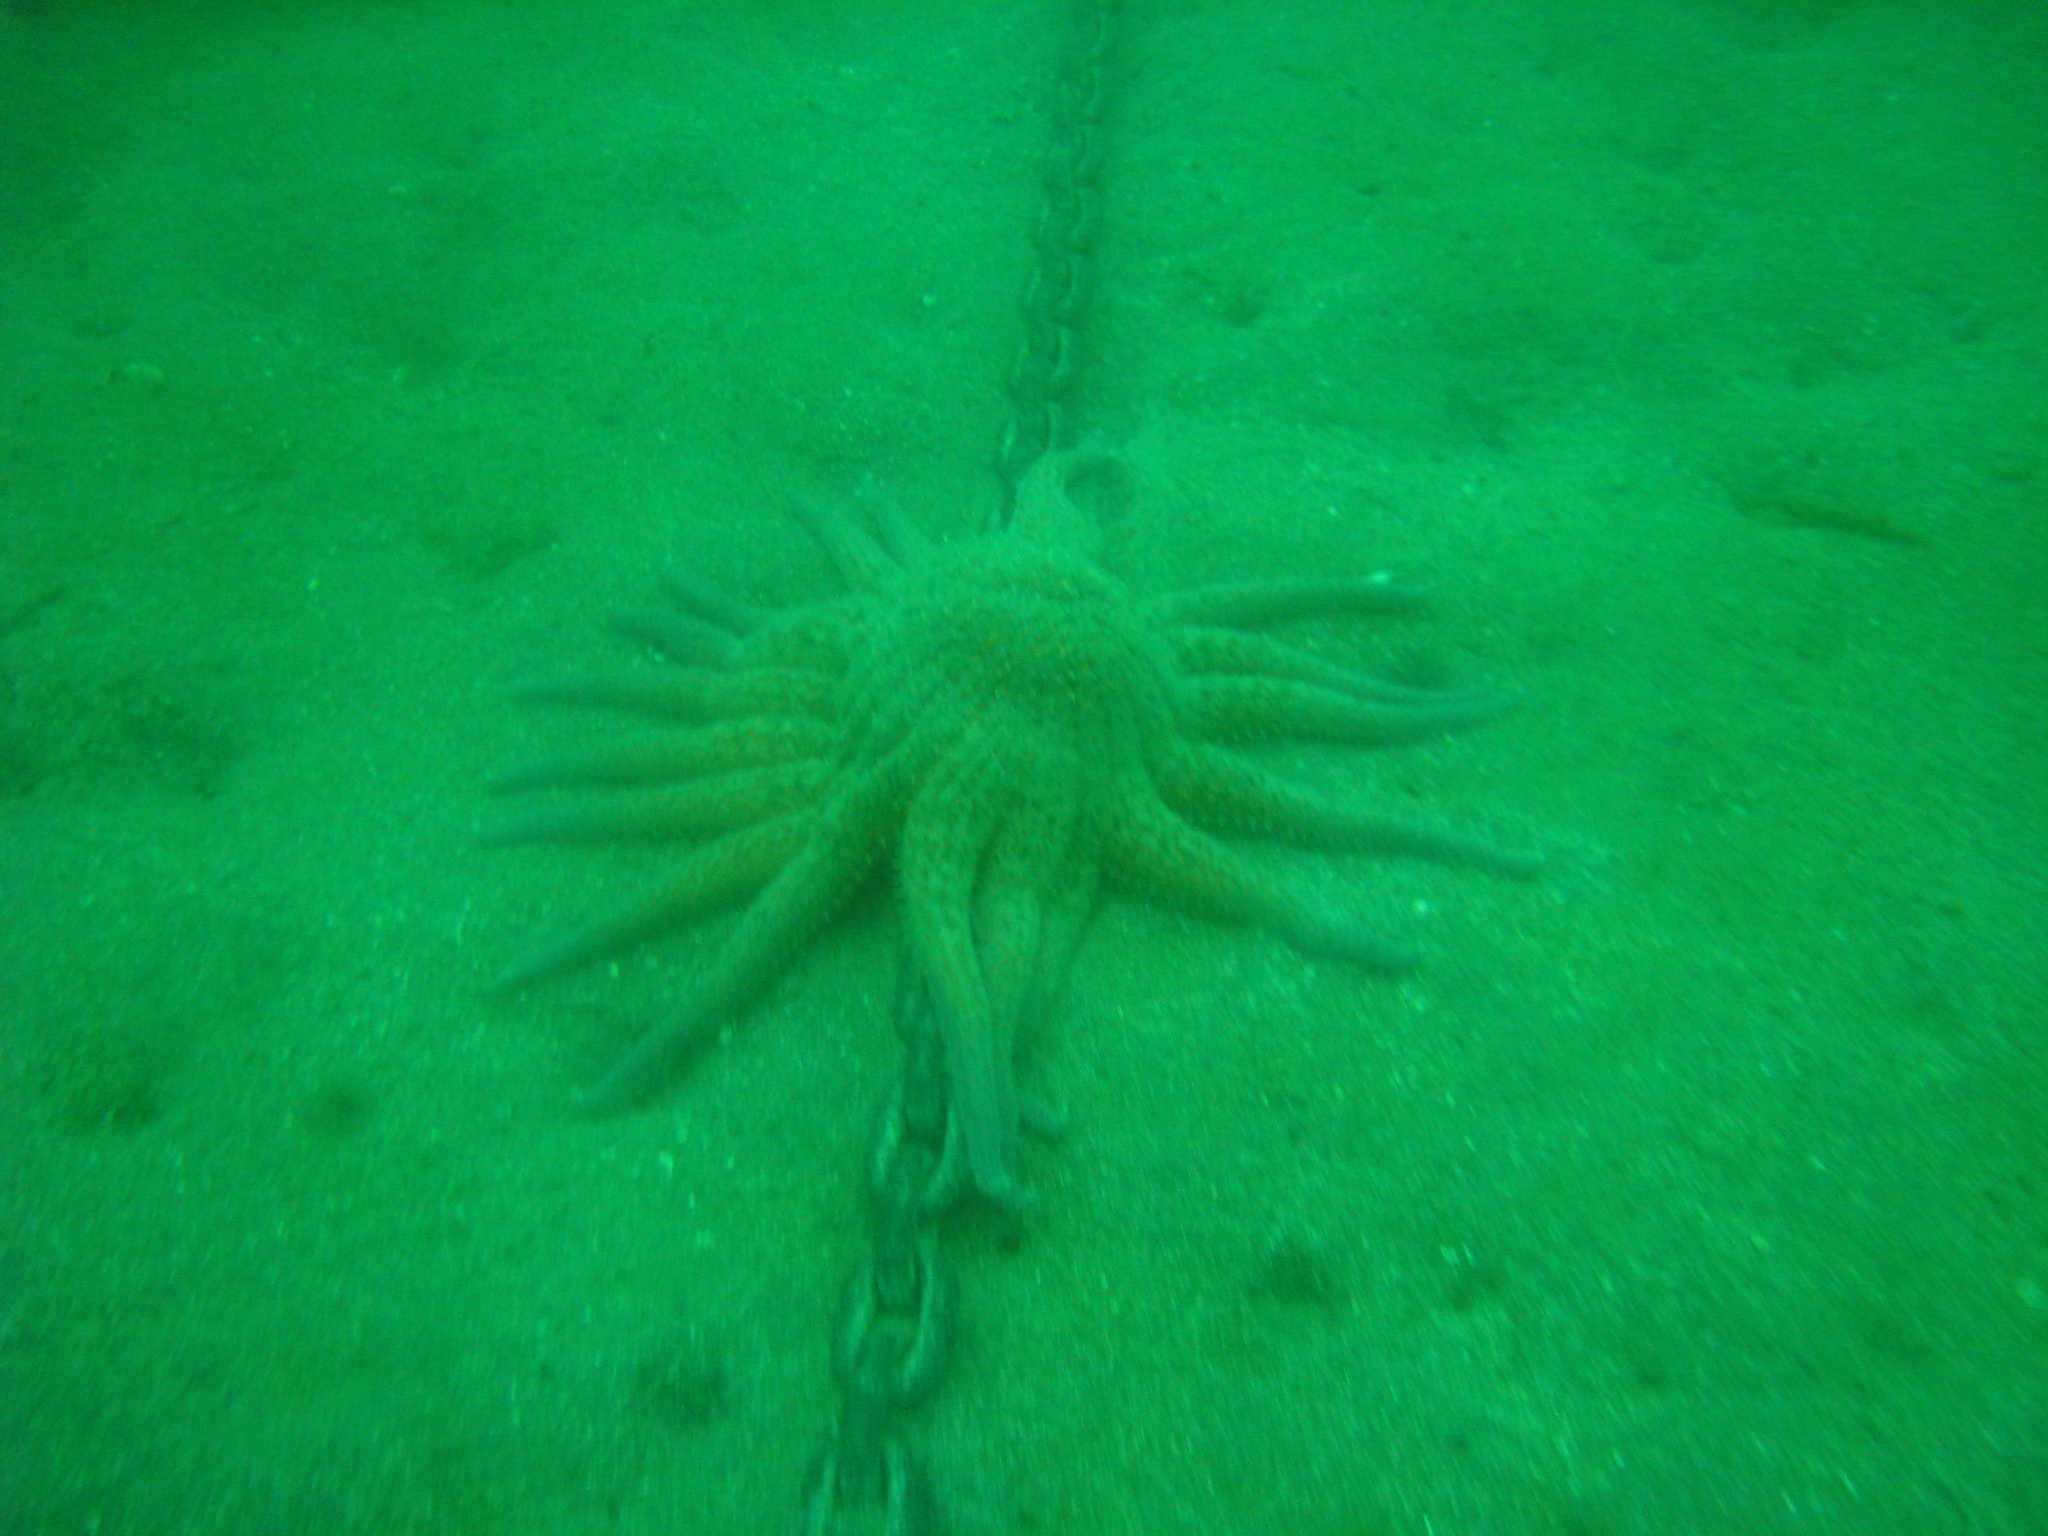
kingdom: Animalia
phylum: Echinodermata
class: Asteroidea
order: Forcipulatida
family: Asteriidae
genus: Pycnopodia
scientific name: Pycnopodia helianthoides
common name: Rag mop
